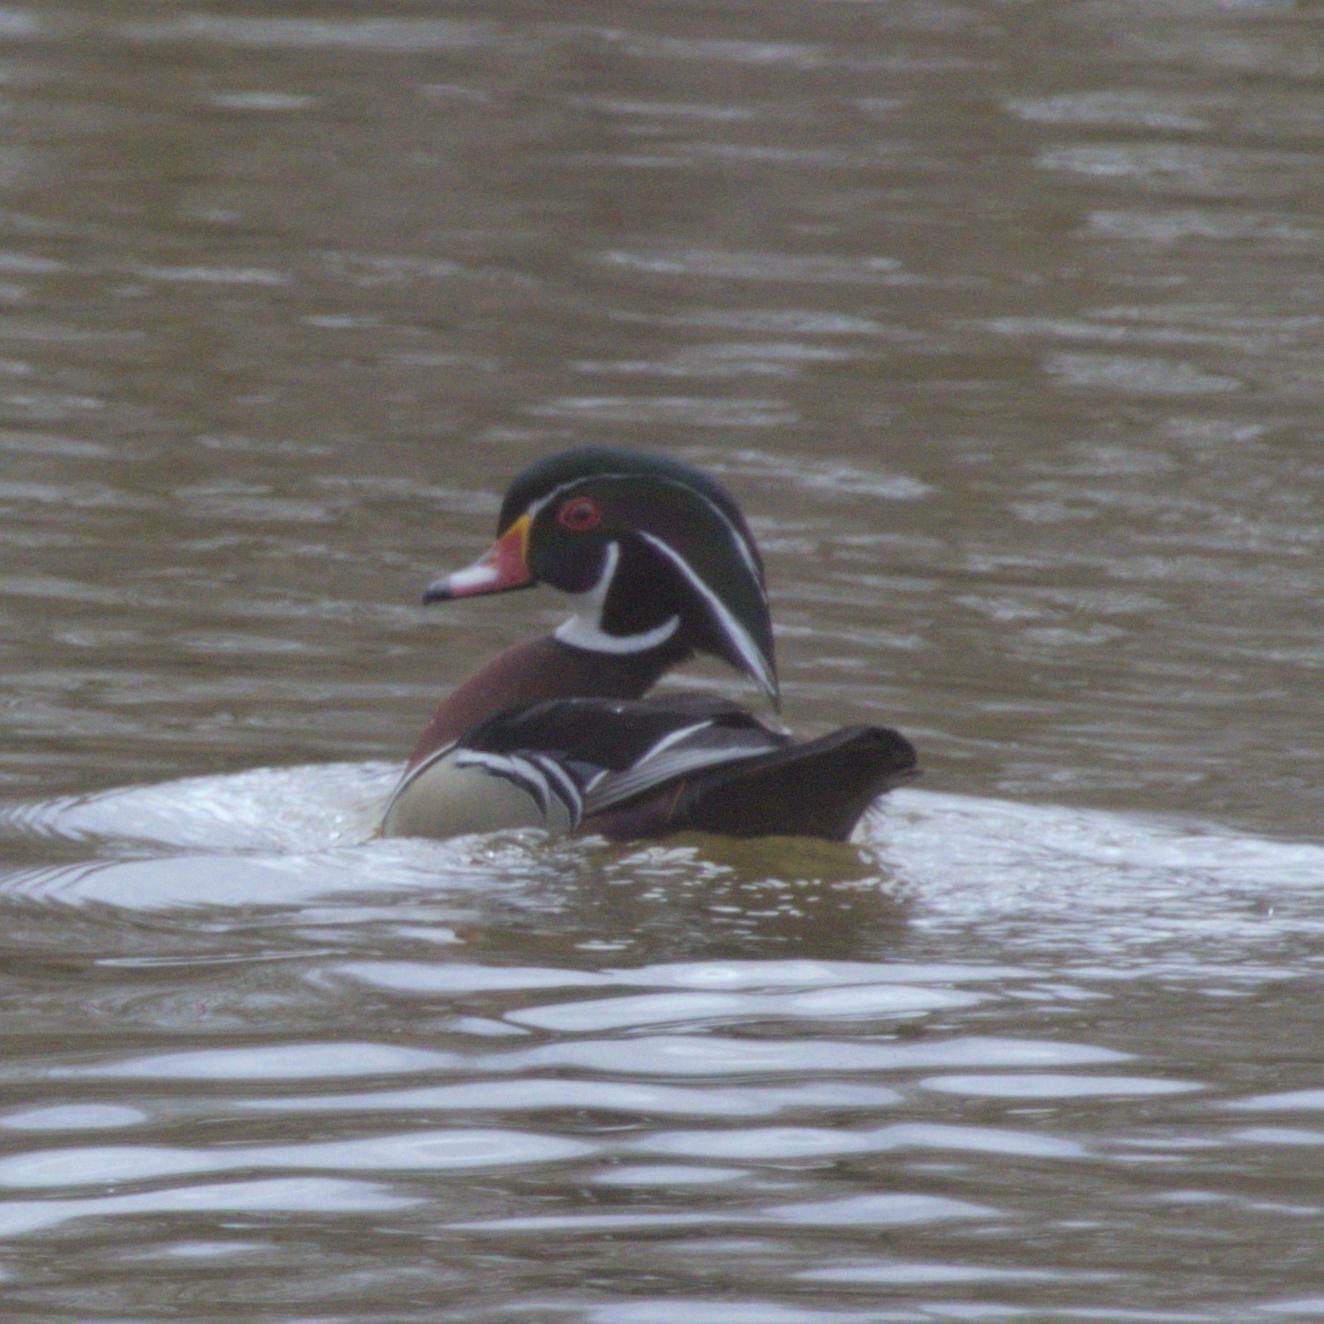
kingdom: Animalia
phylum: Chordata
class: Aves
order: Anseriformes
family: Anatidae
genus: Aix
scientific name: Aix sponsa
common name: Wood duck
